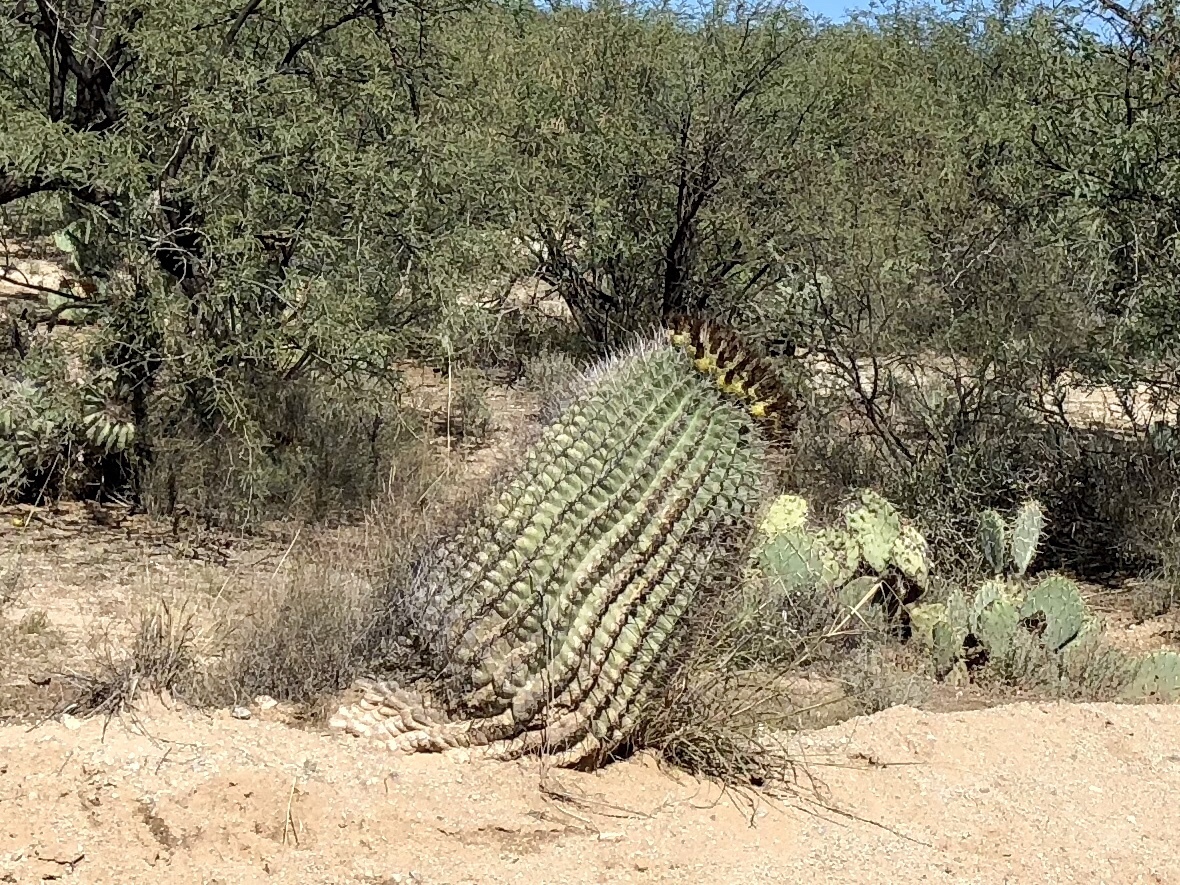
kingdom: Plantae
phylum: Tracheophyta
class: Magnoliopsida
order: Caryophyllales
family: Cactaceae
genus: Ferocactus
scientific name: Ferocactus wislizeni
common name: Candy barrel cactus
